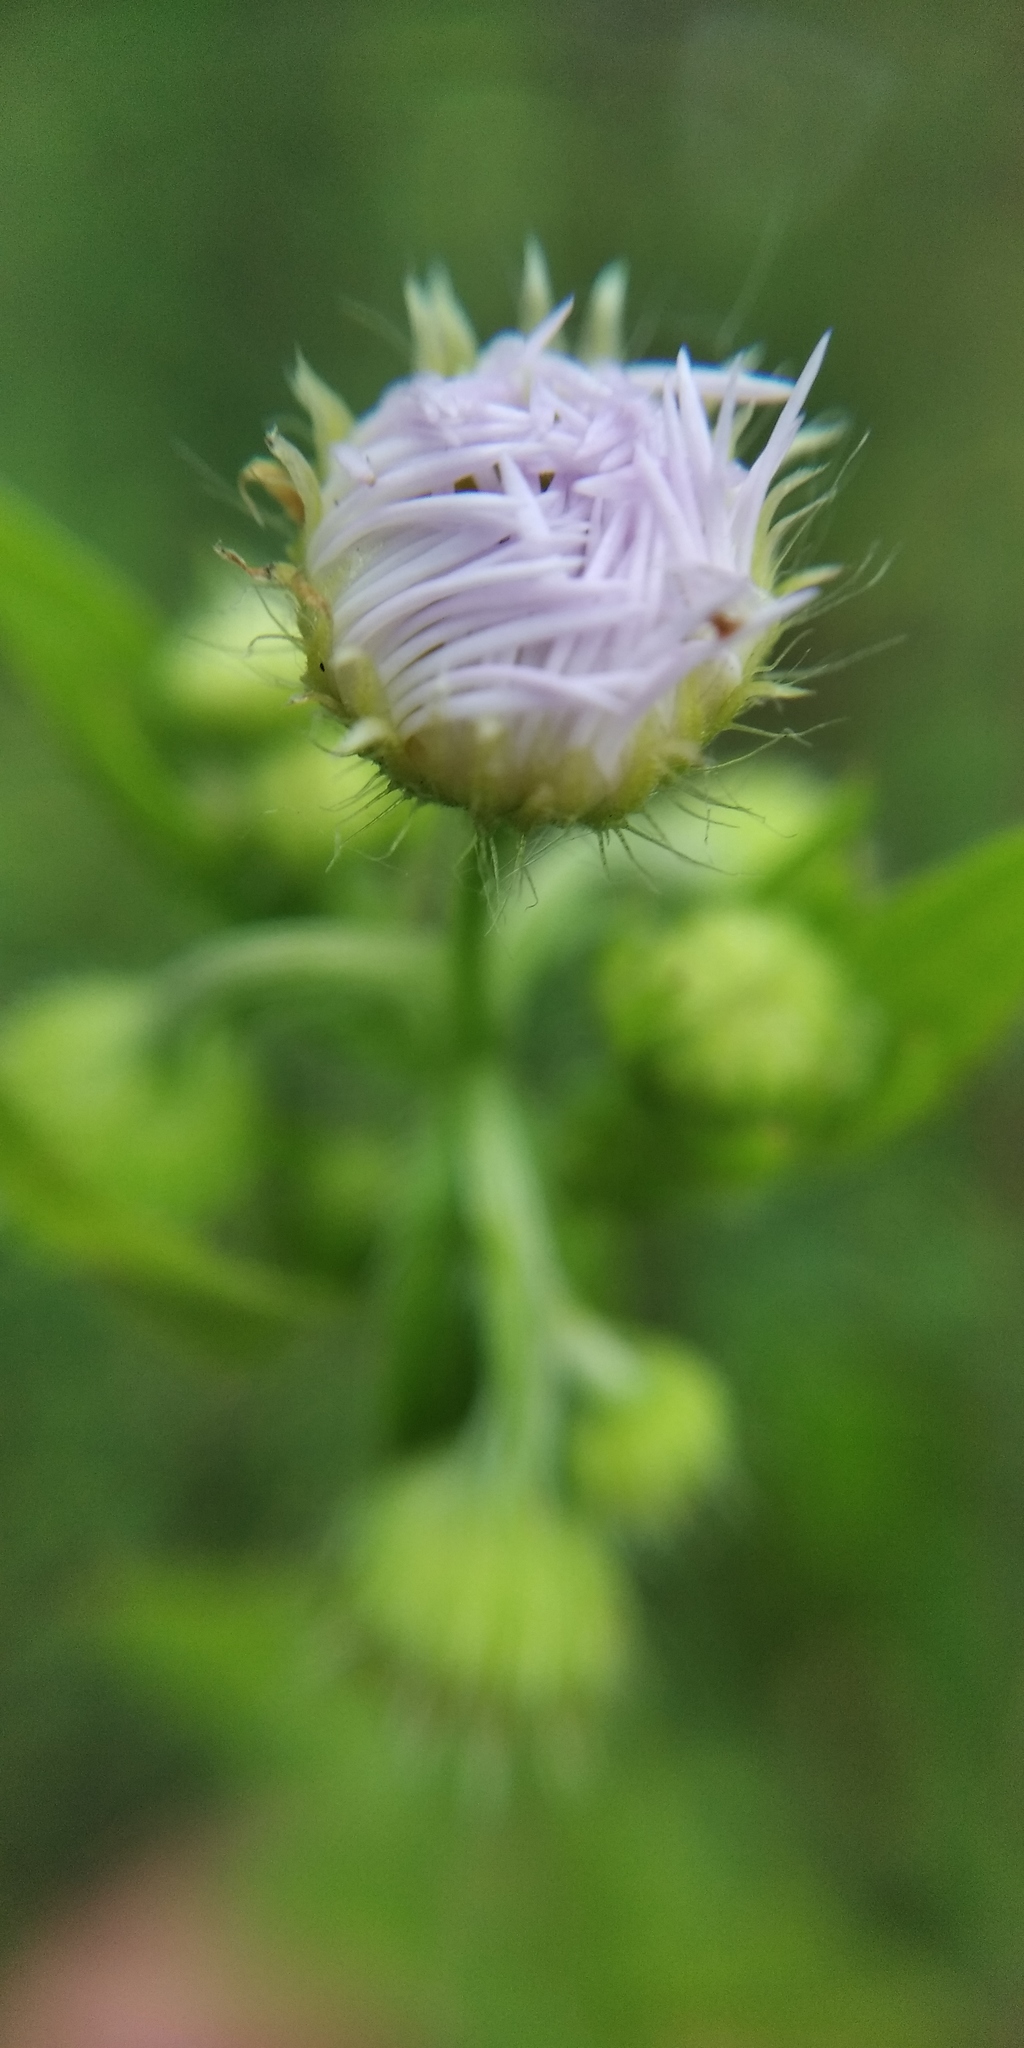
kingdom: Plantae
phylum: Tracheophyta
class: Magnoliopsida
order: Asterales
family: Asteraceae
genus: Erigeron
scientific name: Erigeron annuus
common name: Tall fleabane
